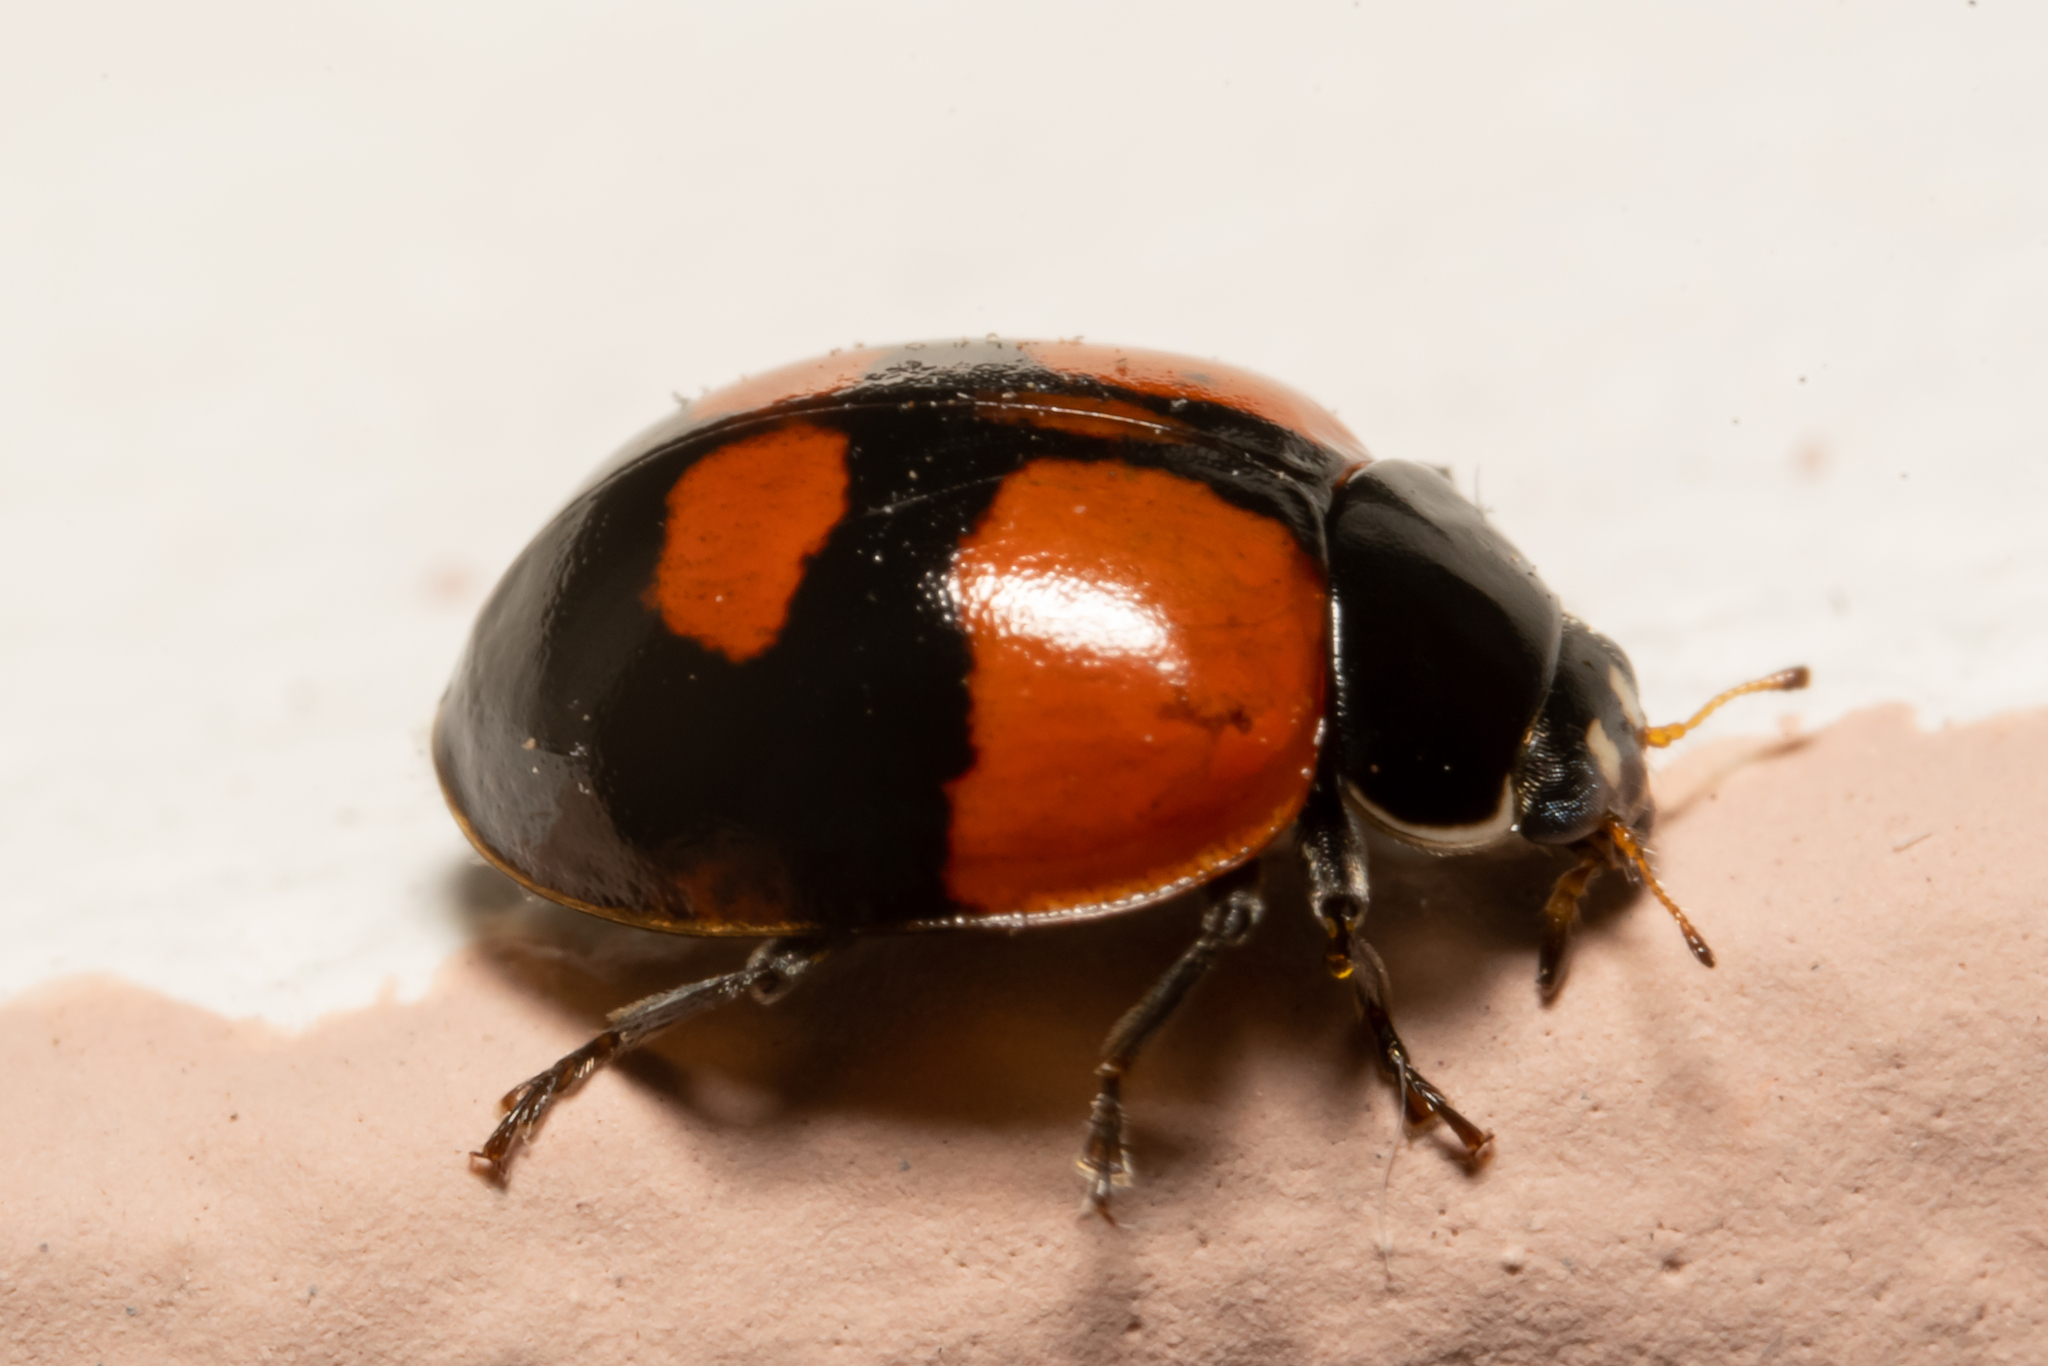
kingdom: Animalia
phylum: Arthropoda
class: Insecta
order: Coleoptera
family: Coccinellidae
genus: Adalia
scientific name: Adalia bipunctata
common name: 2-spot ladybird
